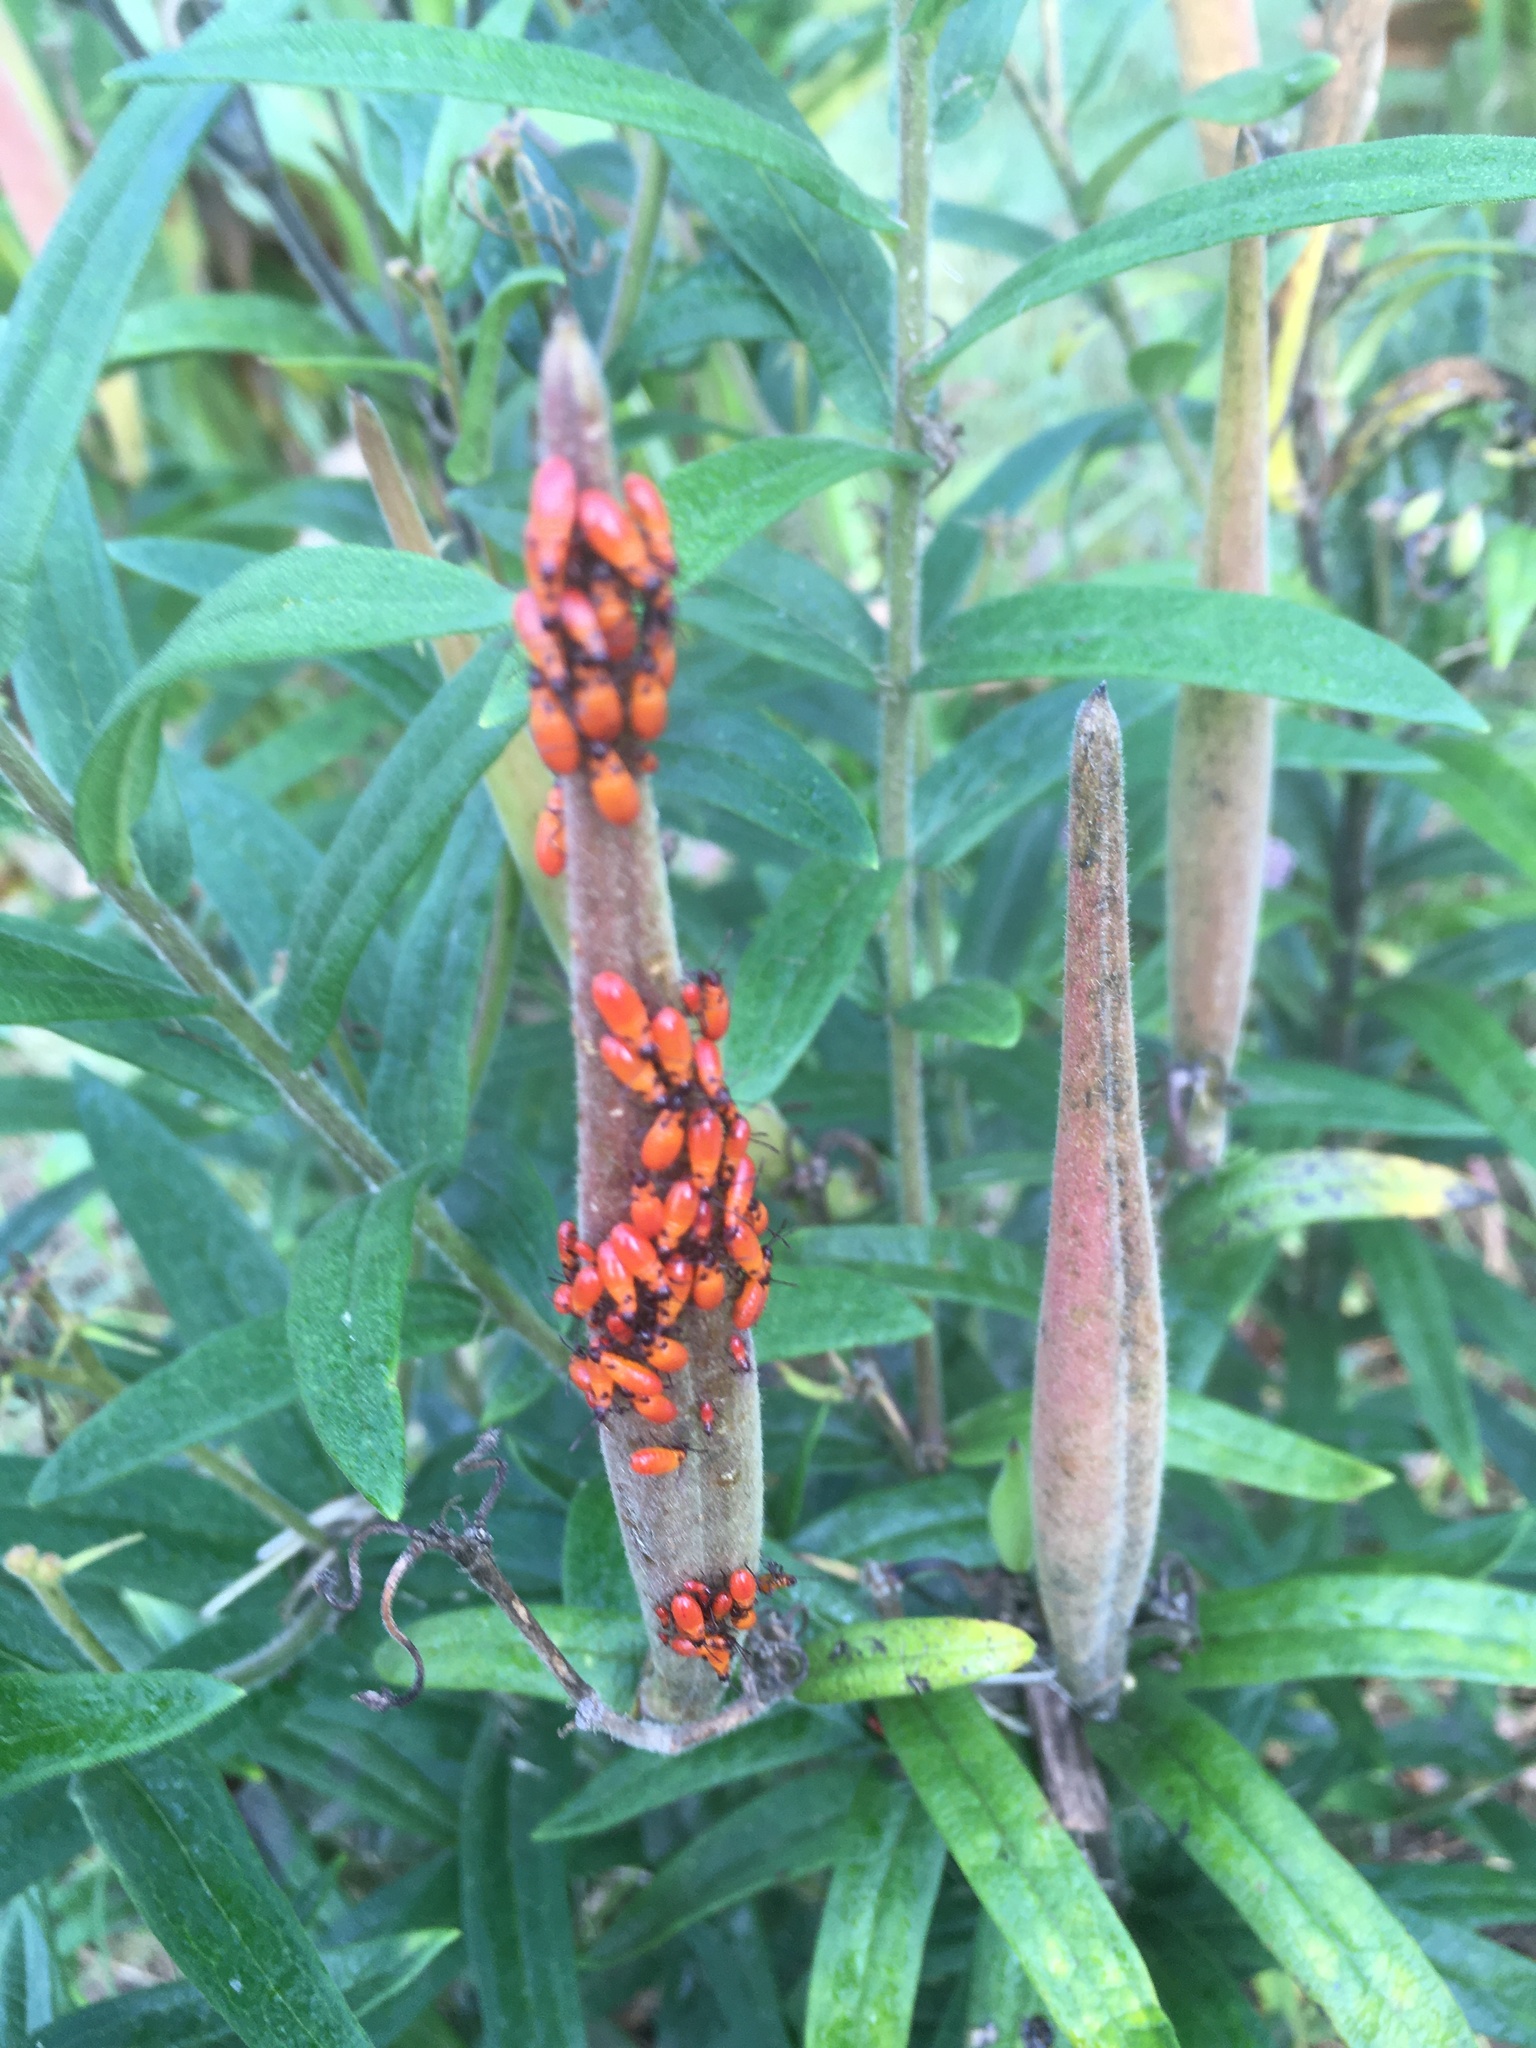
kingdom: Animalia
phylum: Arthropoda
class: Insecta
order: Hemiptera
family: Lygaeidae
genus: Oncopeltus
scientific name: Oncopeltus fasciatus
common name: Large milkweed bug
